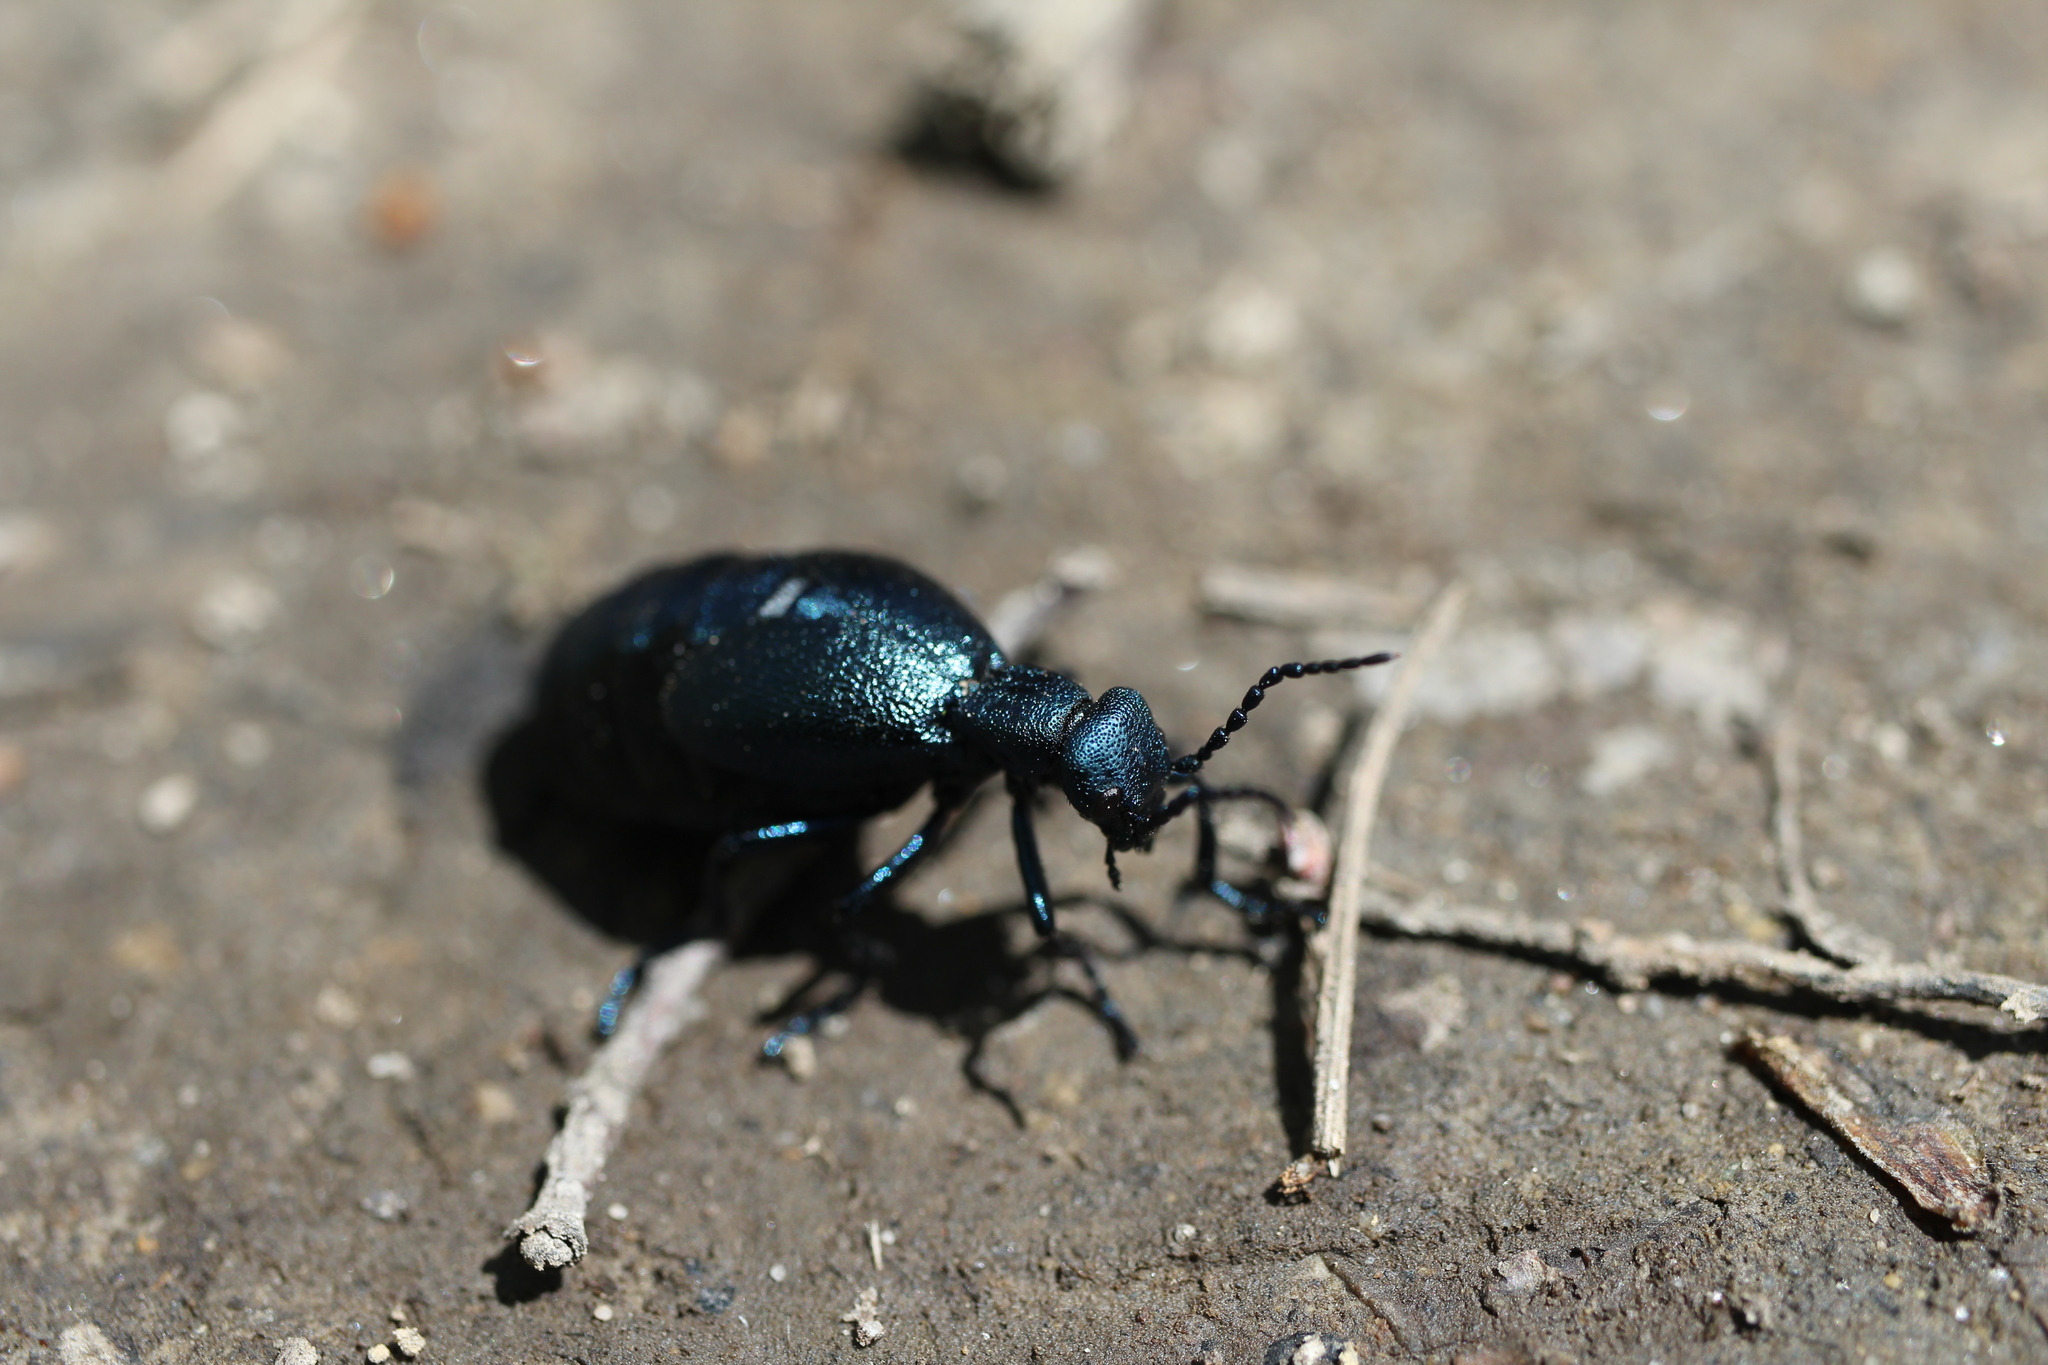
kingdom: Animalia
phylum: Arthropoda
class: Insecta
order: Coleoptera
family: Meloidae
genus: Meloe
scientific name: Meloe angusticollis
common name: Short-winged blister beetle
